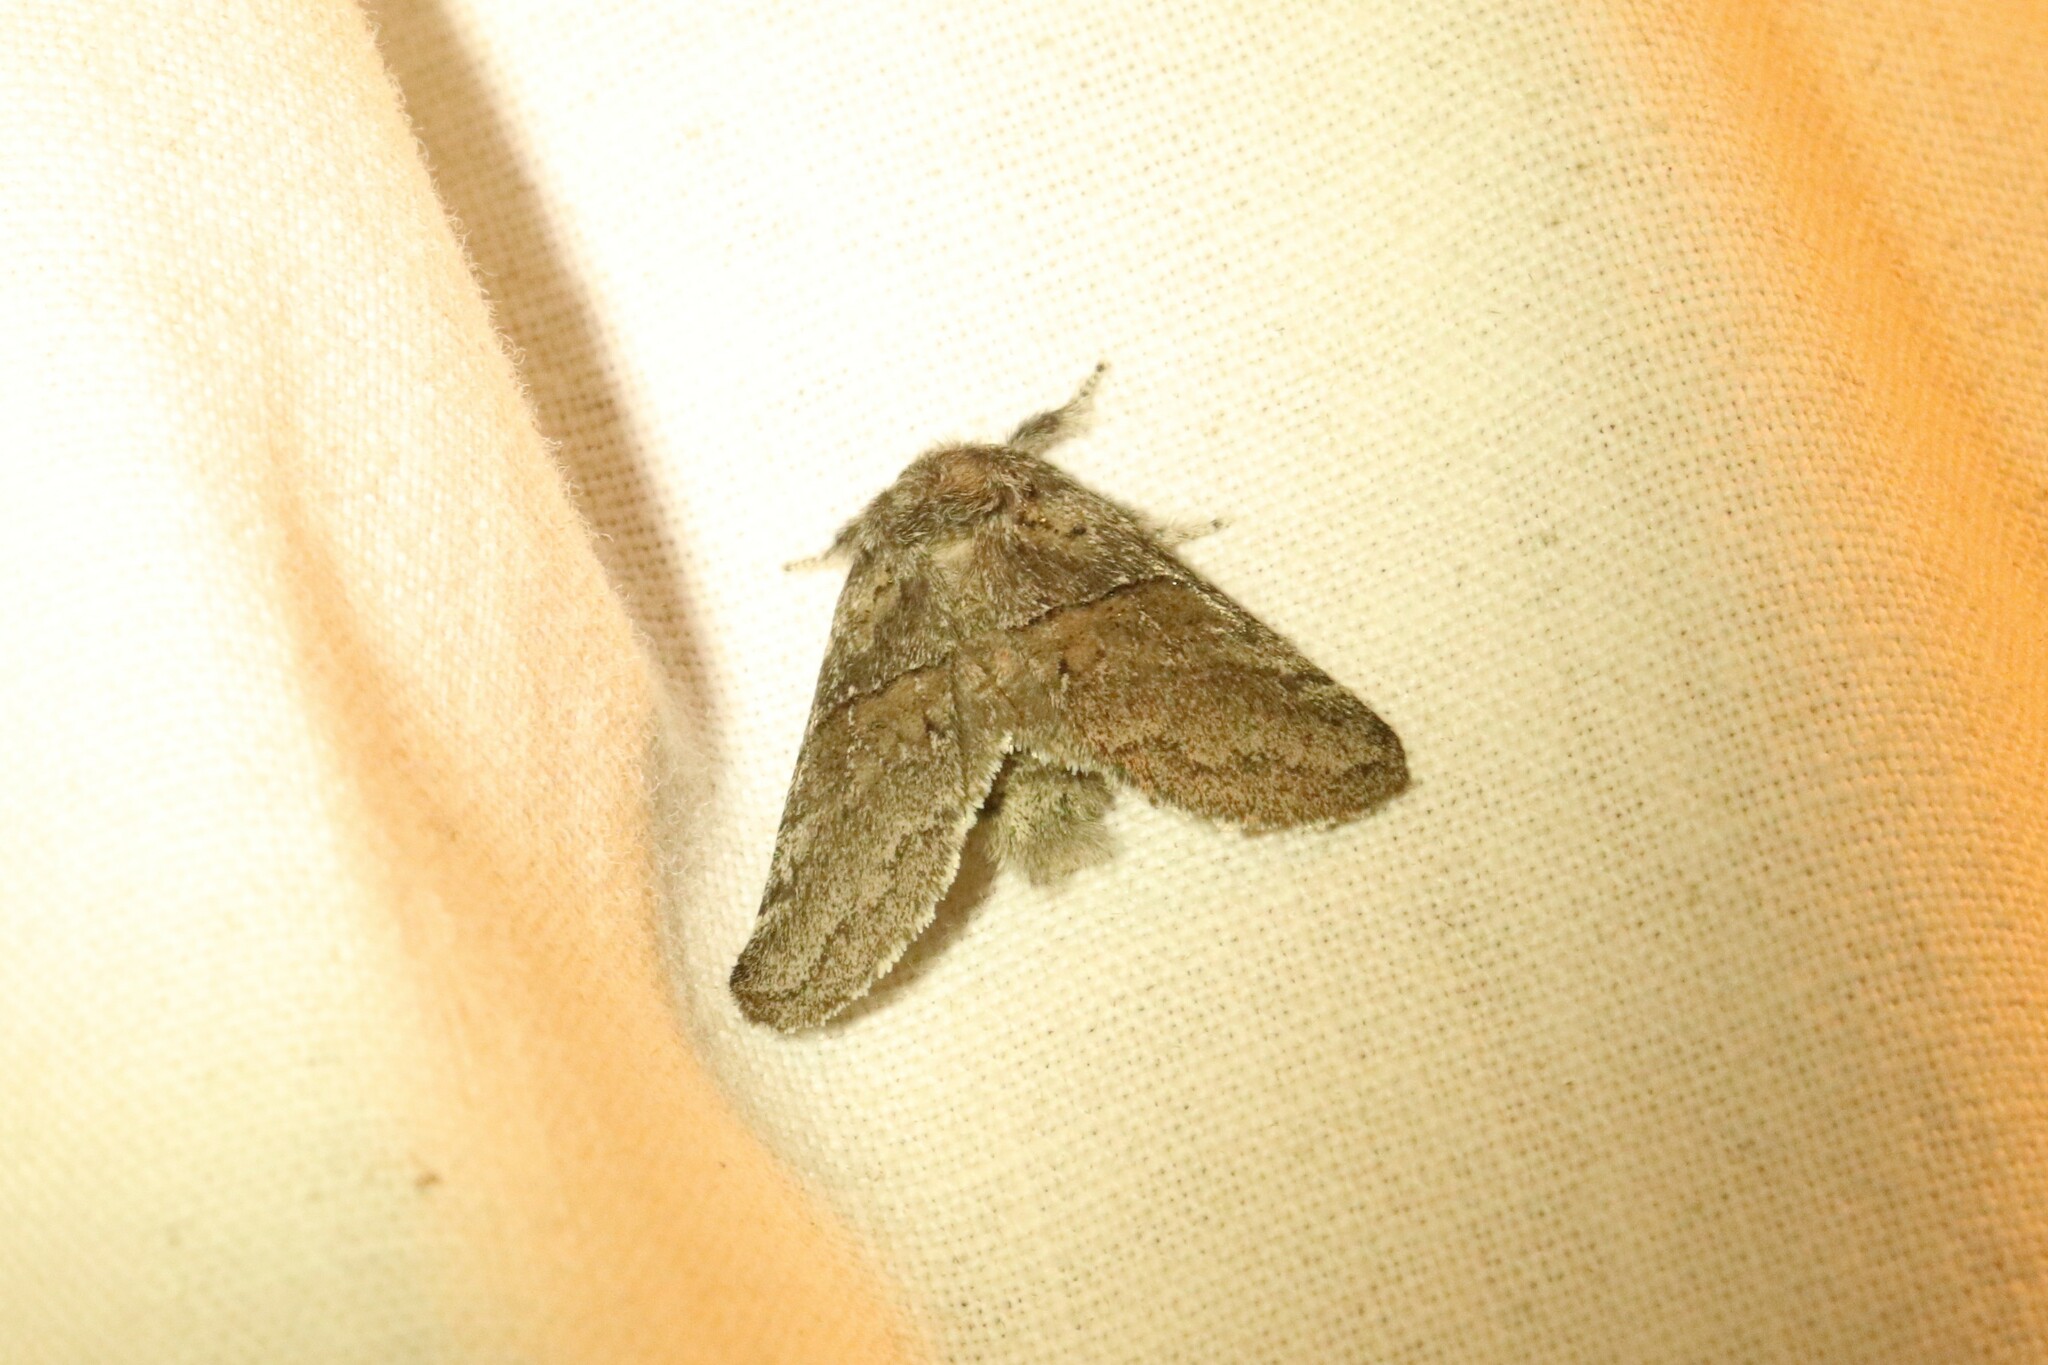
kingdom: Animalia
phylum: Arthropoda
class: Insecta
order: Lepidoptera
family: Notodontidae
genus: Gluphisia
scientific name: Gluphisia septentrionis
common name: Common gluphisia
